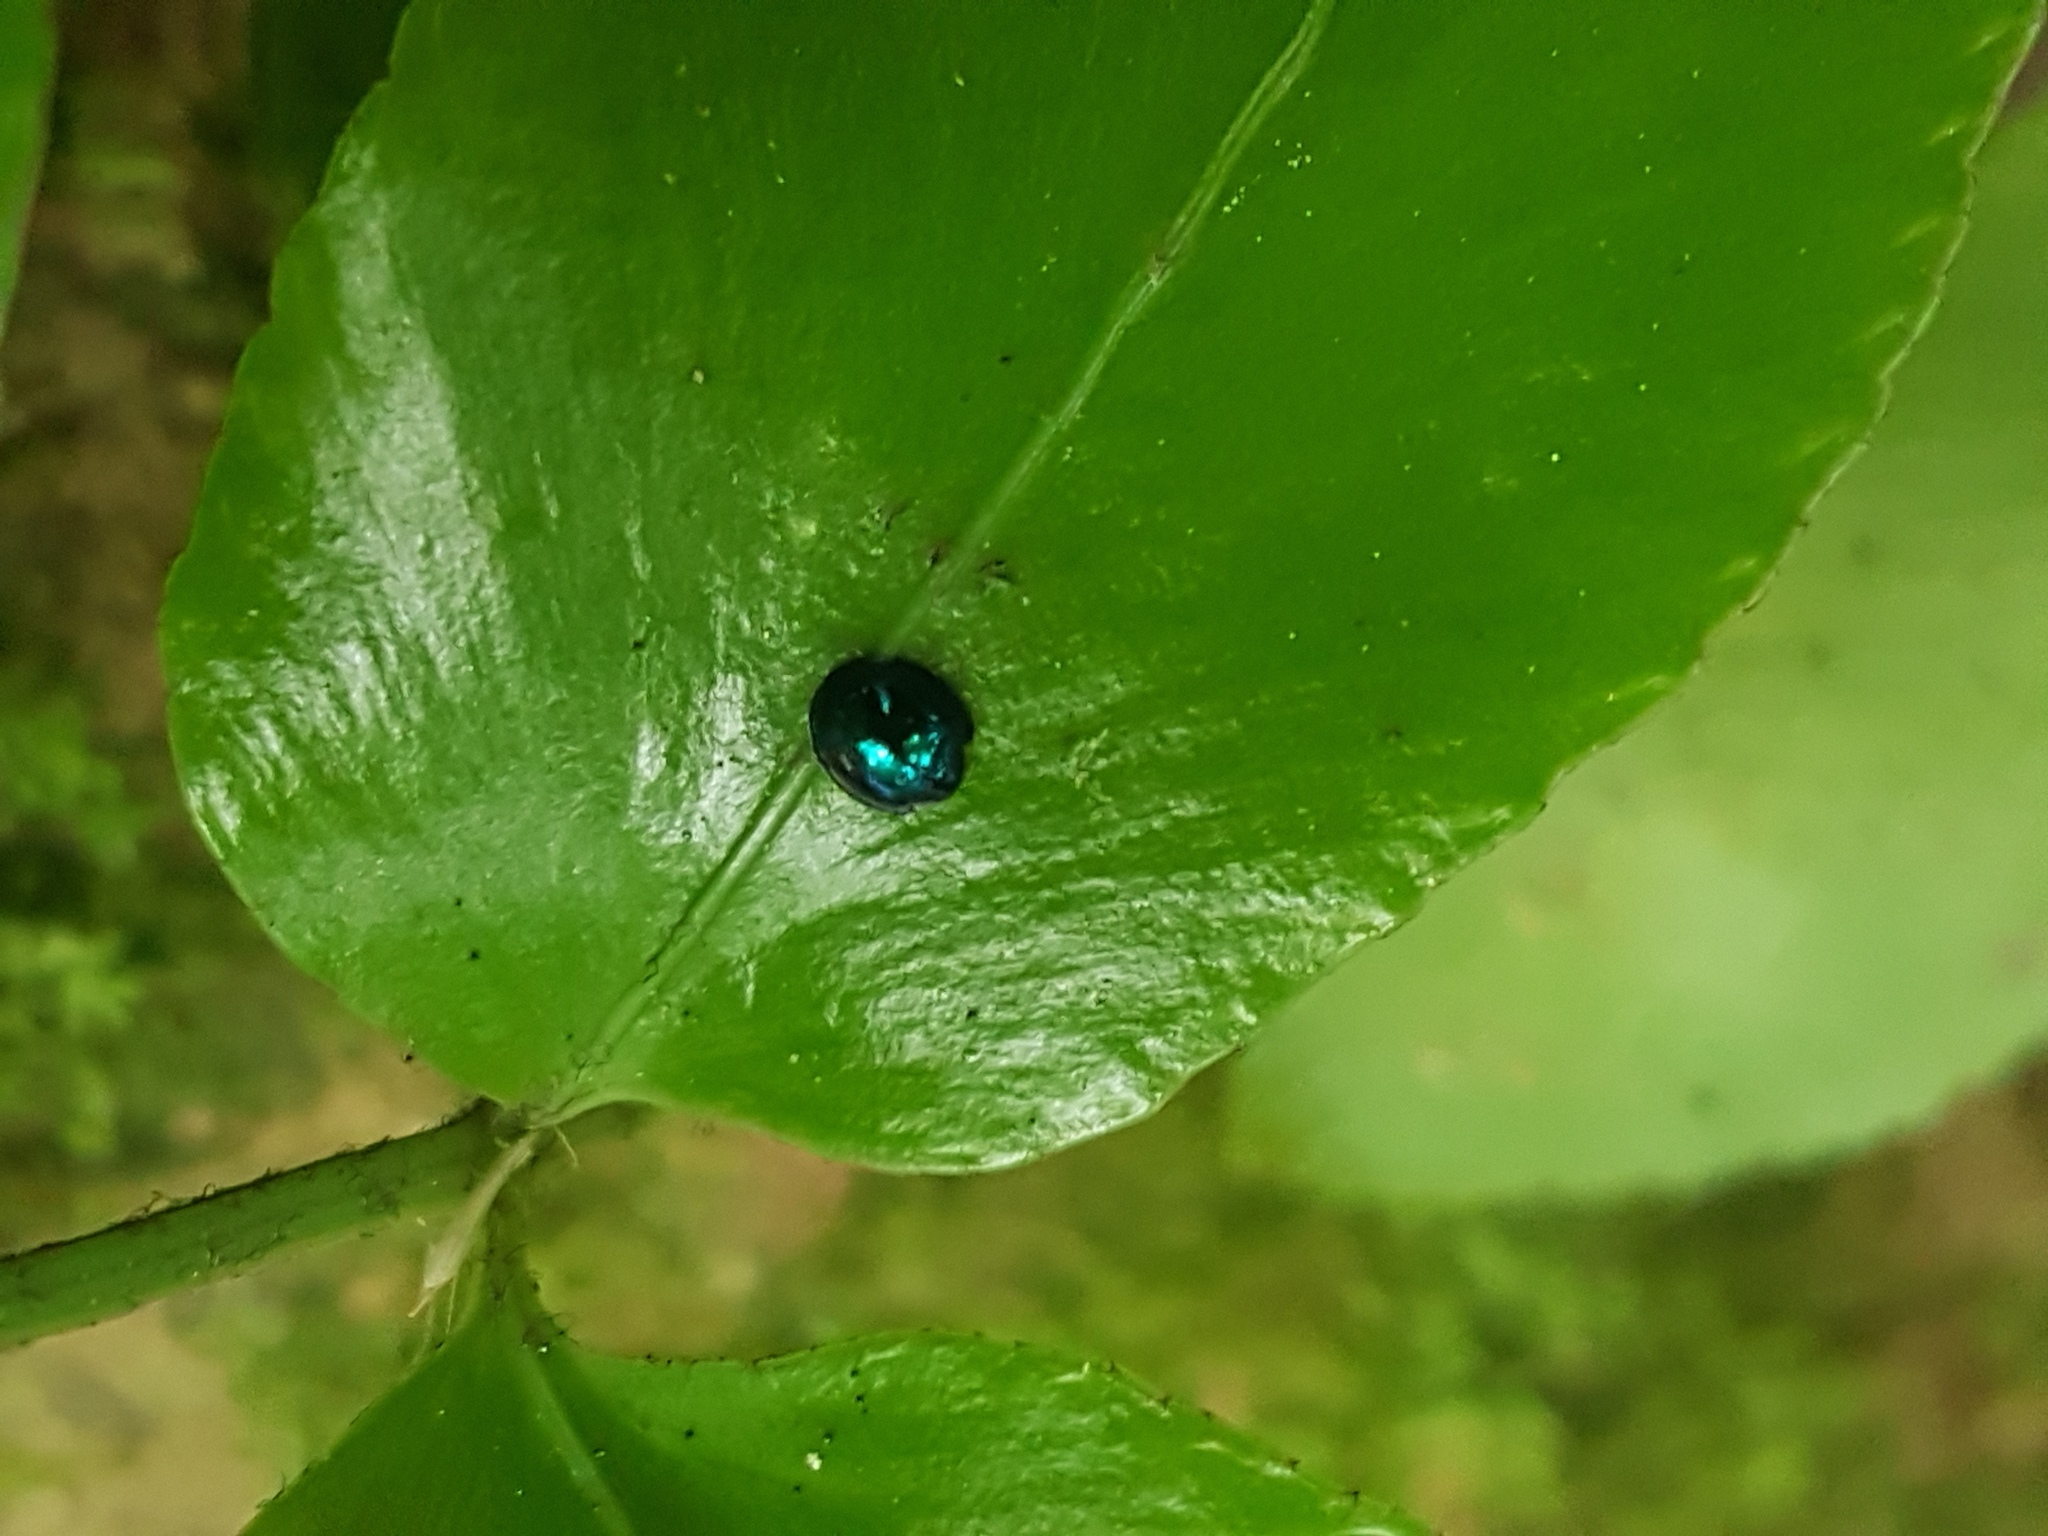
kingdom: Animalia
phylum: Arthropoda
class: Insecta
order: Coleoptera
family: Coccinellidae
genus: Halmus
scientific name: Halmus chalybeus
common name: Steel blue ladybird beetle
